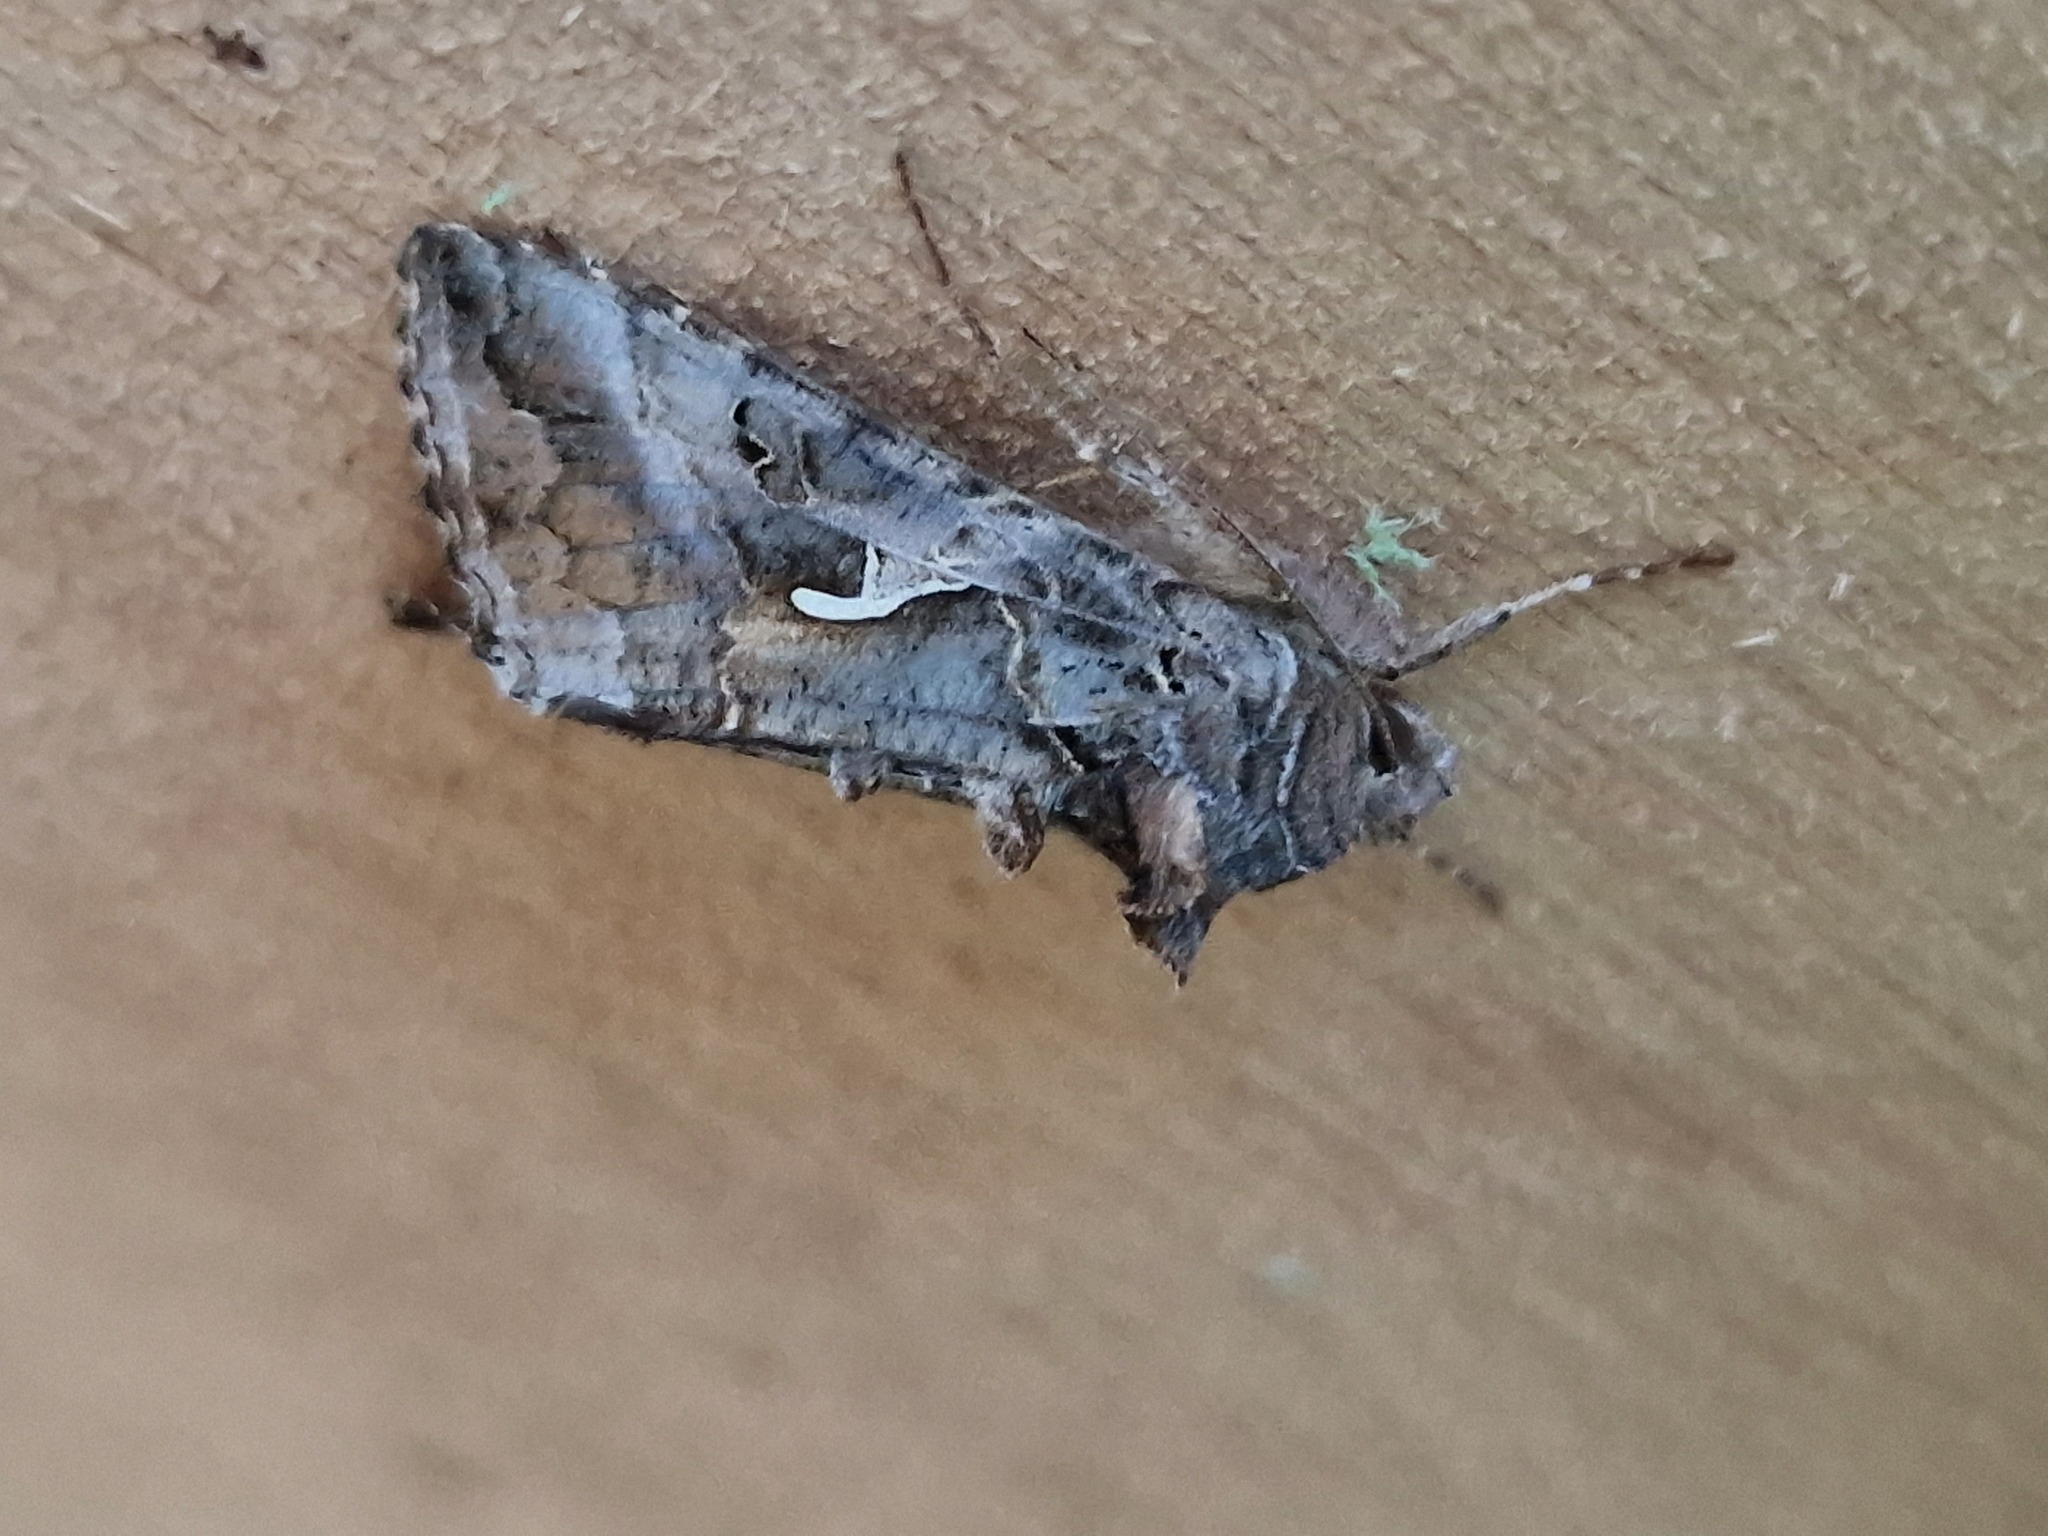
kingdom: Animalia
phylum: Arthropoda
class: Insecta
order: Lepidoptera
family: Noctuidae
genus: Autographa
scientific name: Autographa gamma
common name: Silver y
